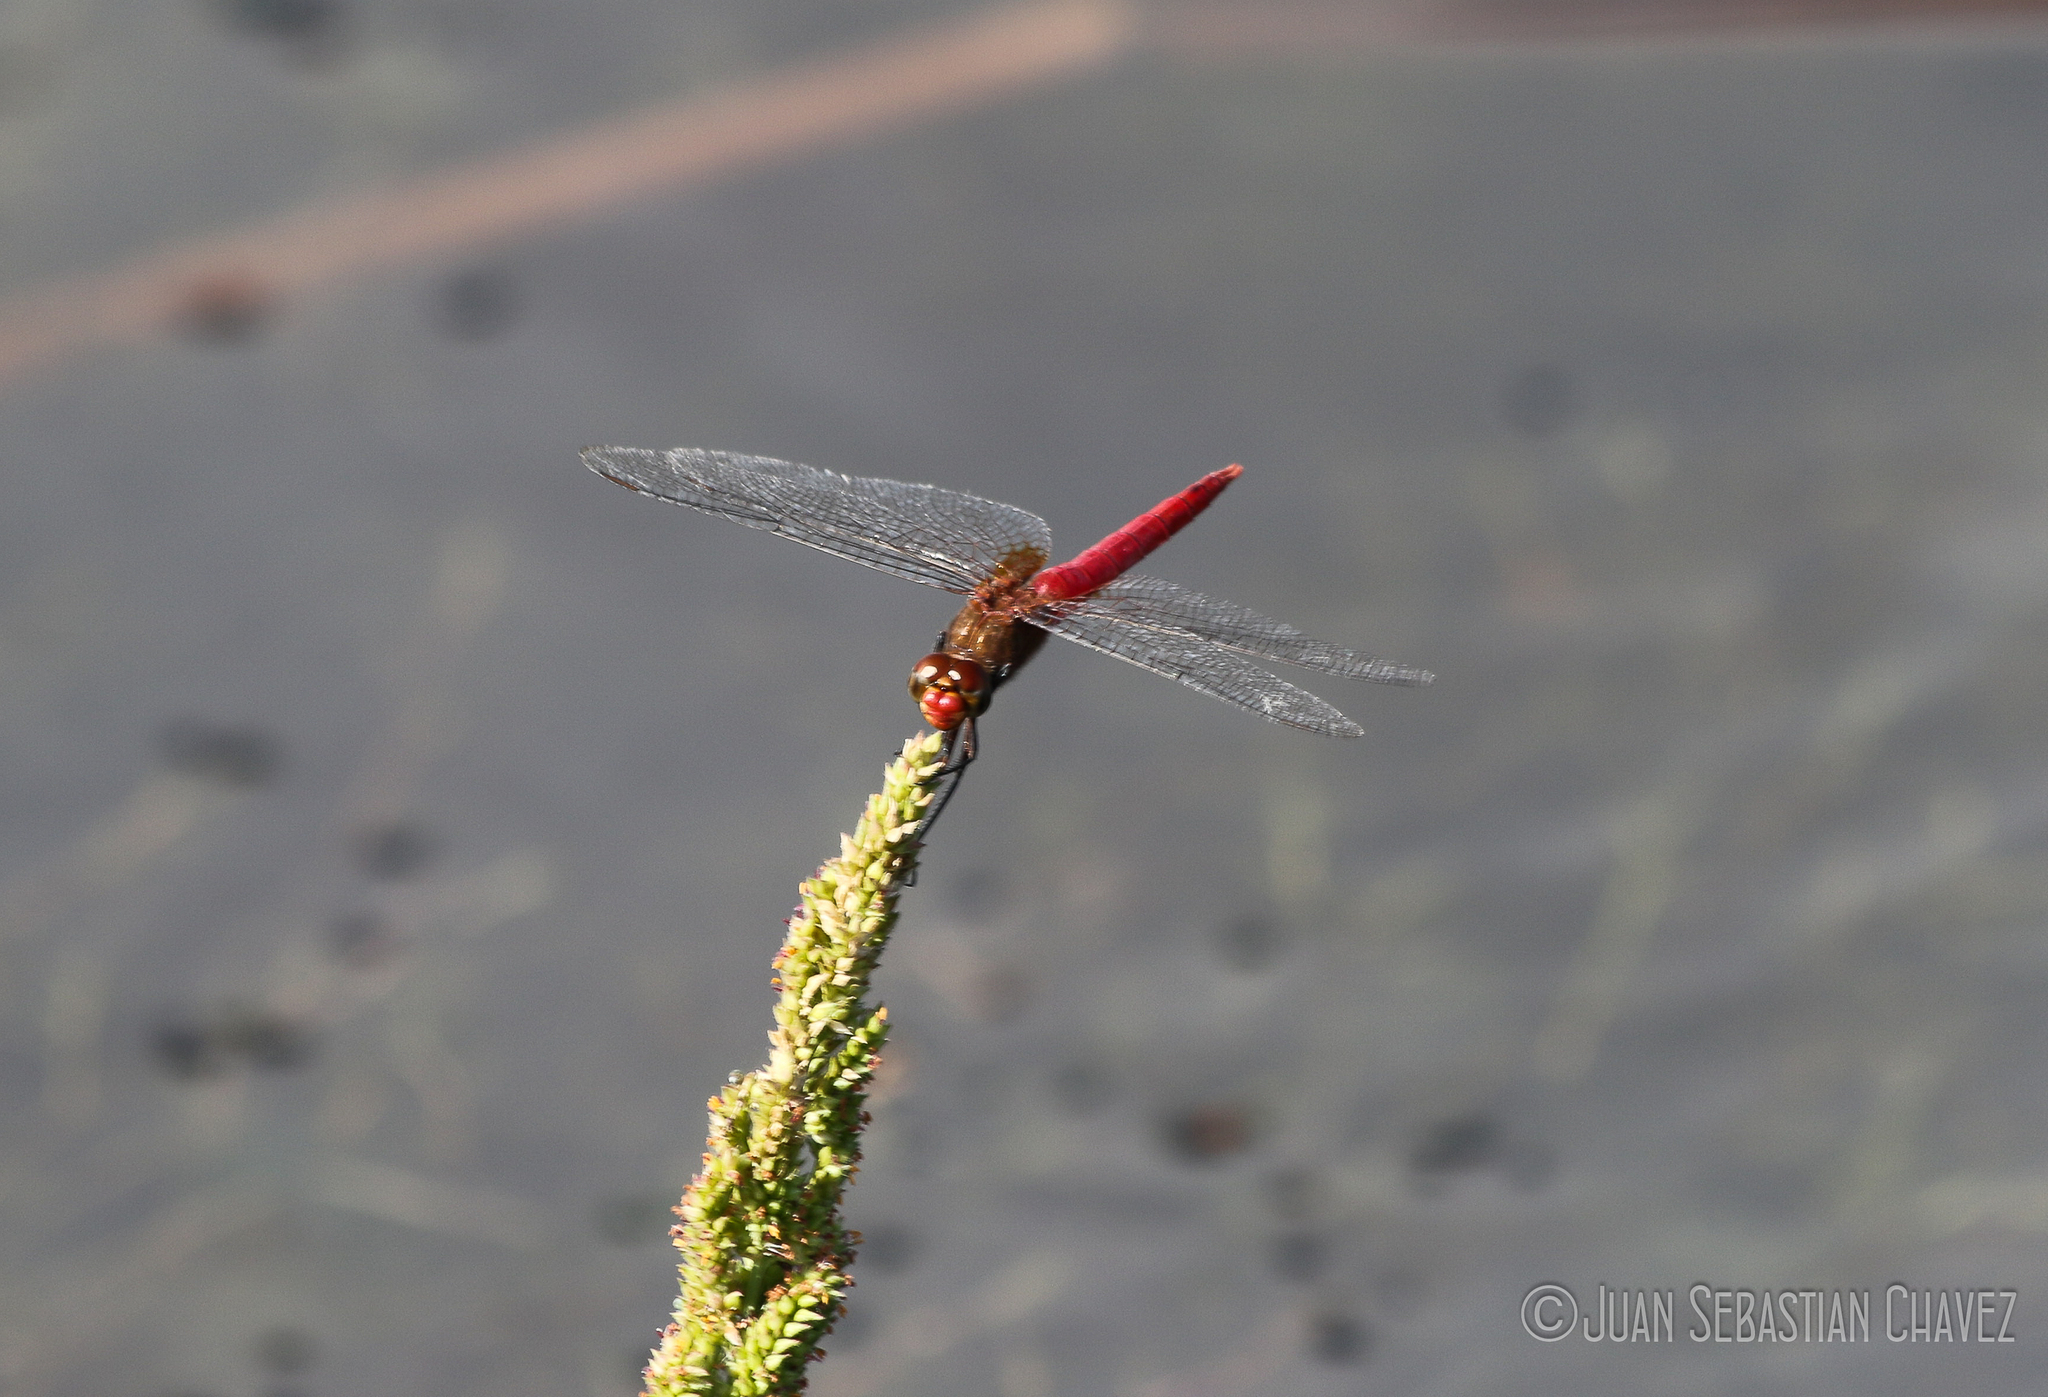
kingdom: Animalia
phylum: Arthropoda
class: Insecta
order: Odonata
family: Libellulidae
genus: Brachymesia
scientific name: Brachymesia furcata
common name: Red-taled pennant
